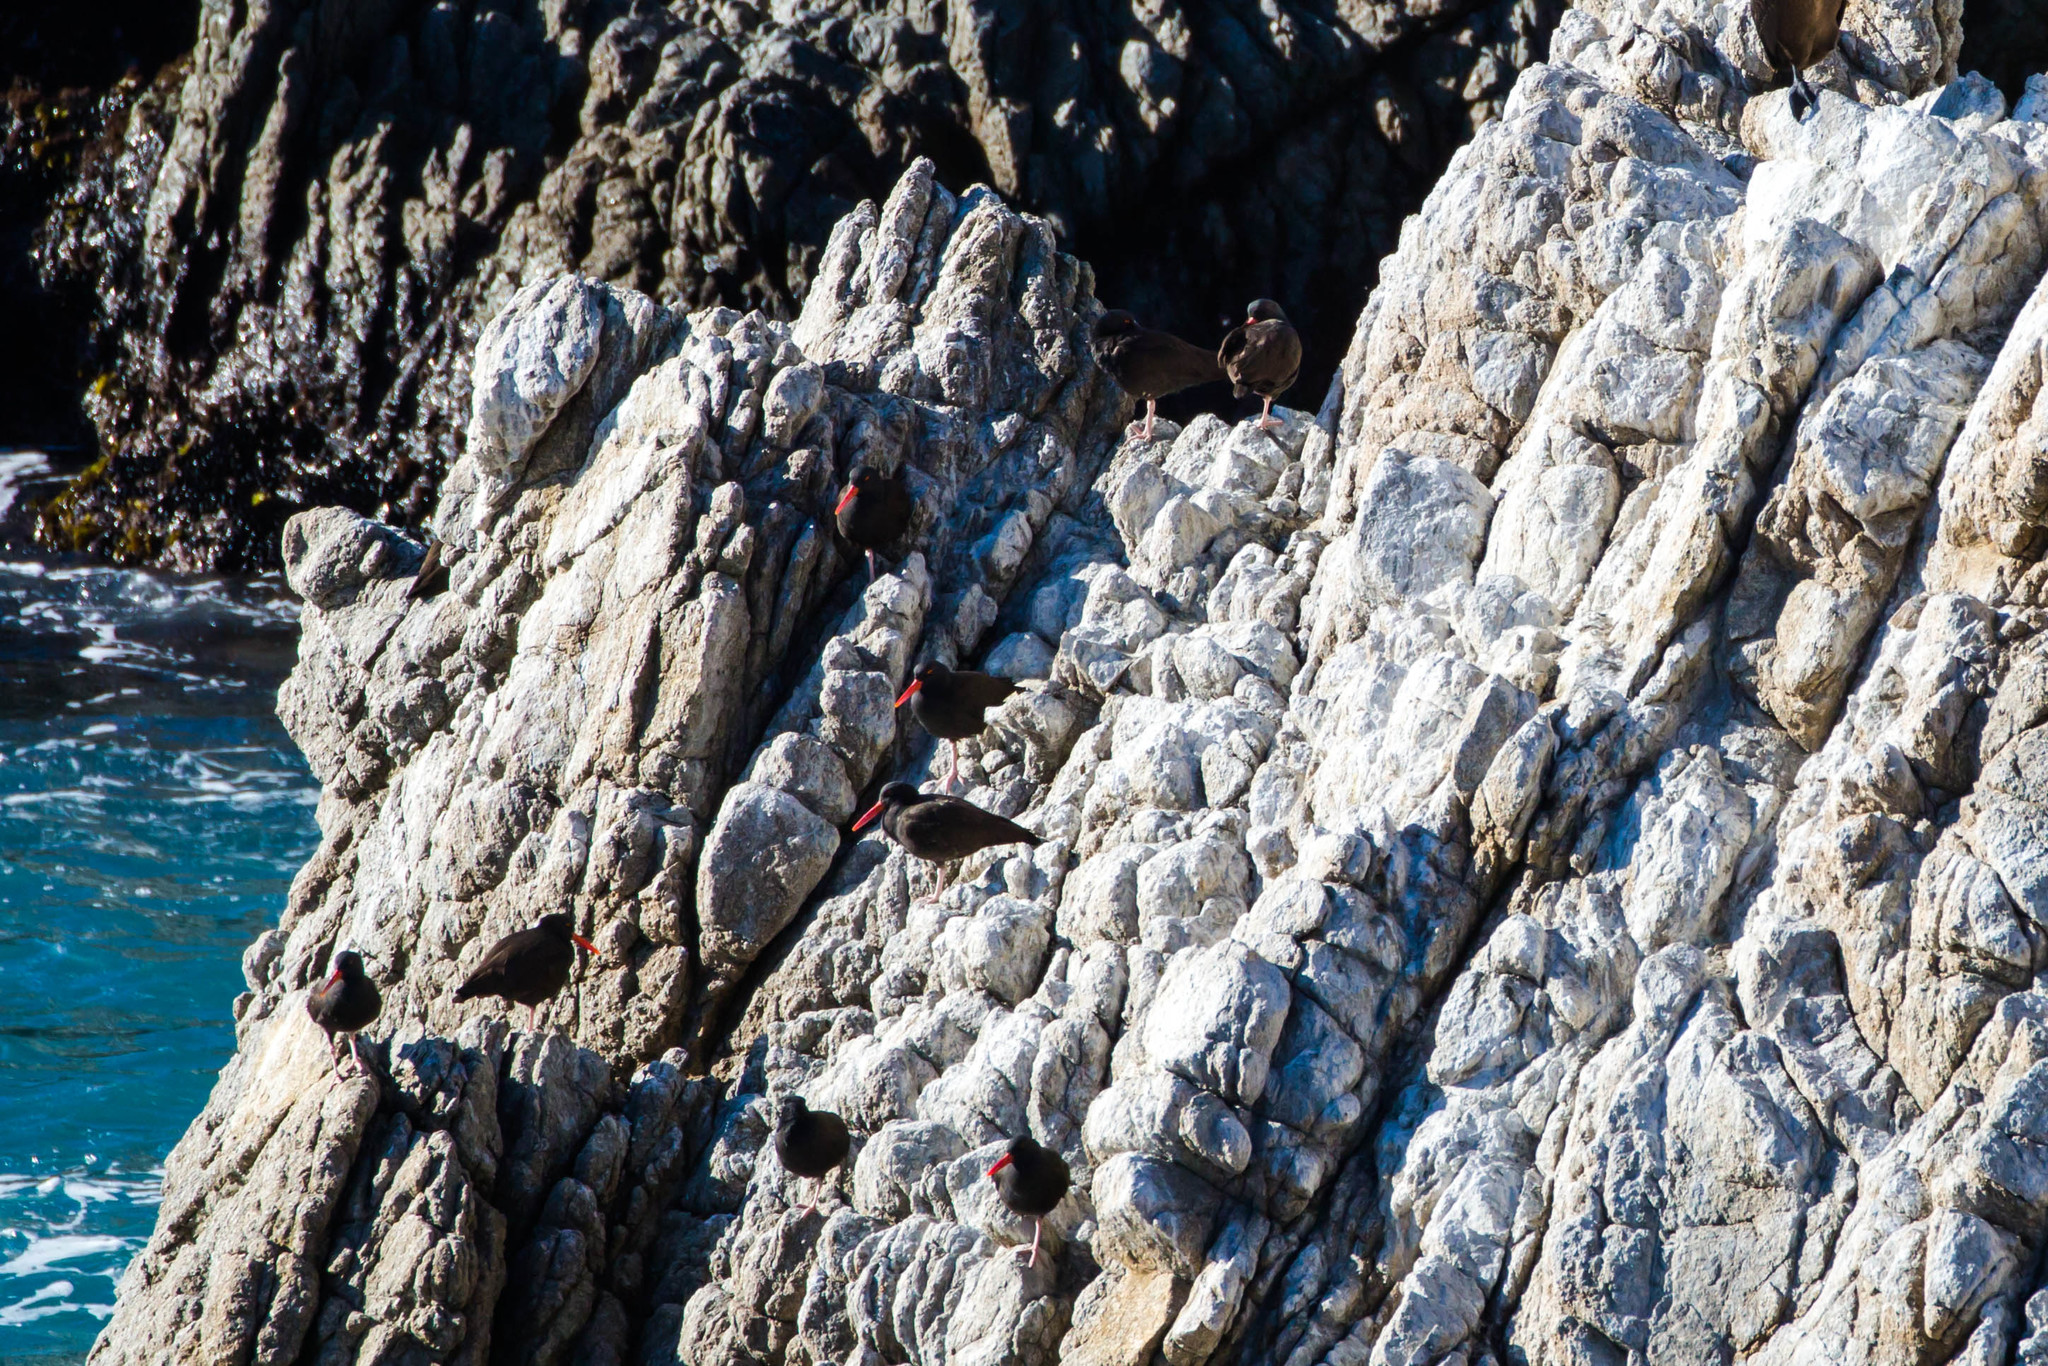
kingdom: Animalia
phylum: Chordata
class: Aves
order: Charadriiformes
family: Haematopodidae
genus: Haematopus
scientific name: Haematopus bachmani
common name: Black oystercatcher
